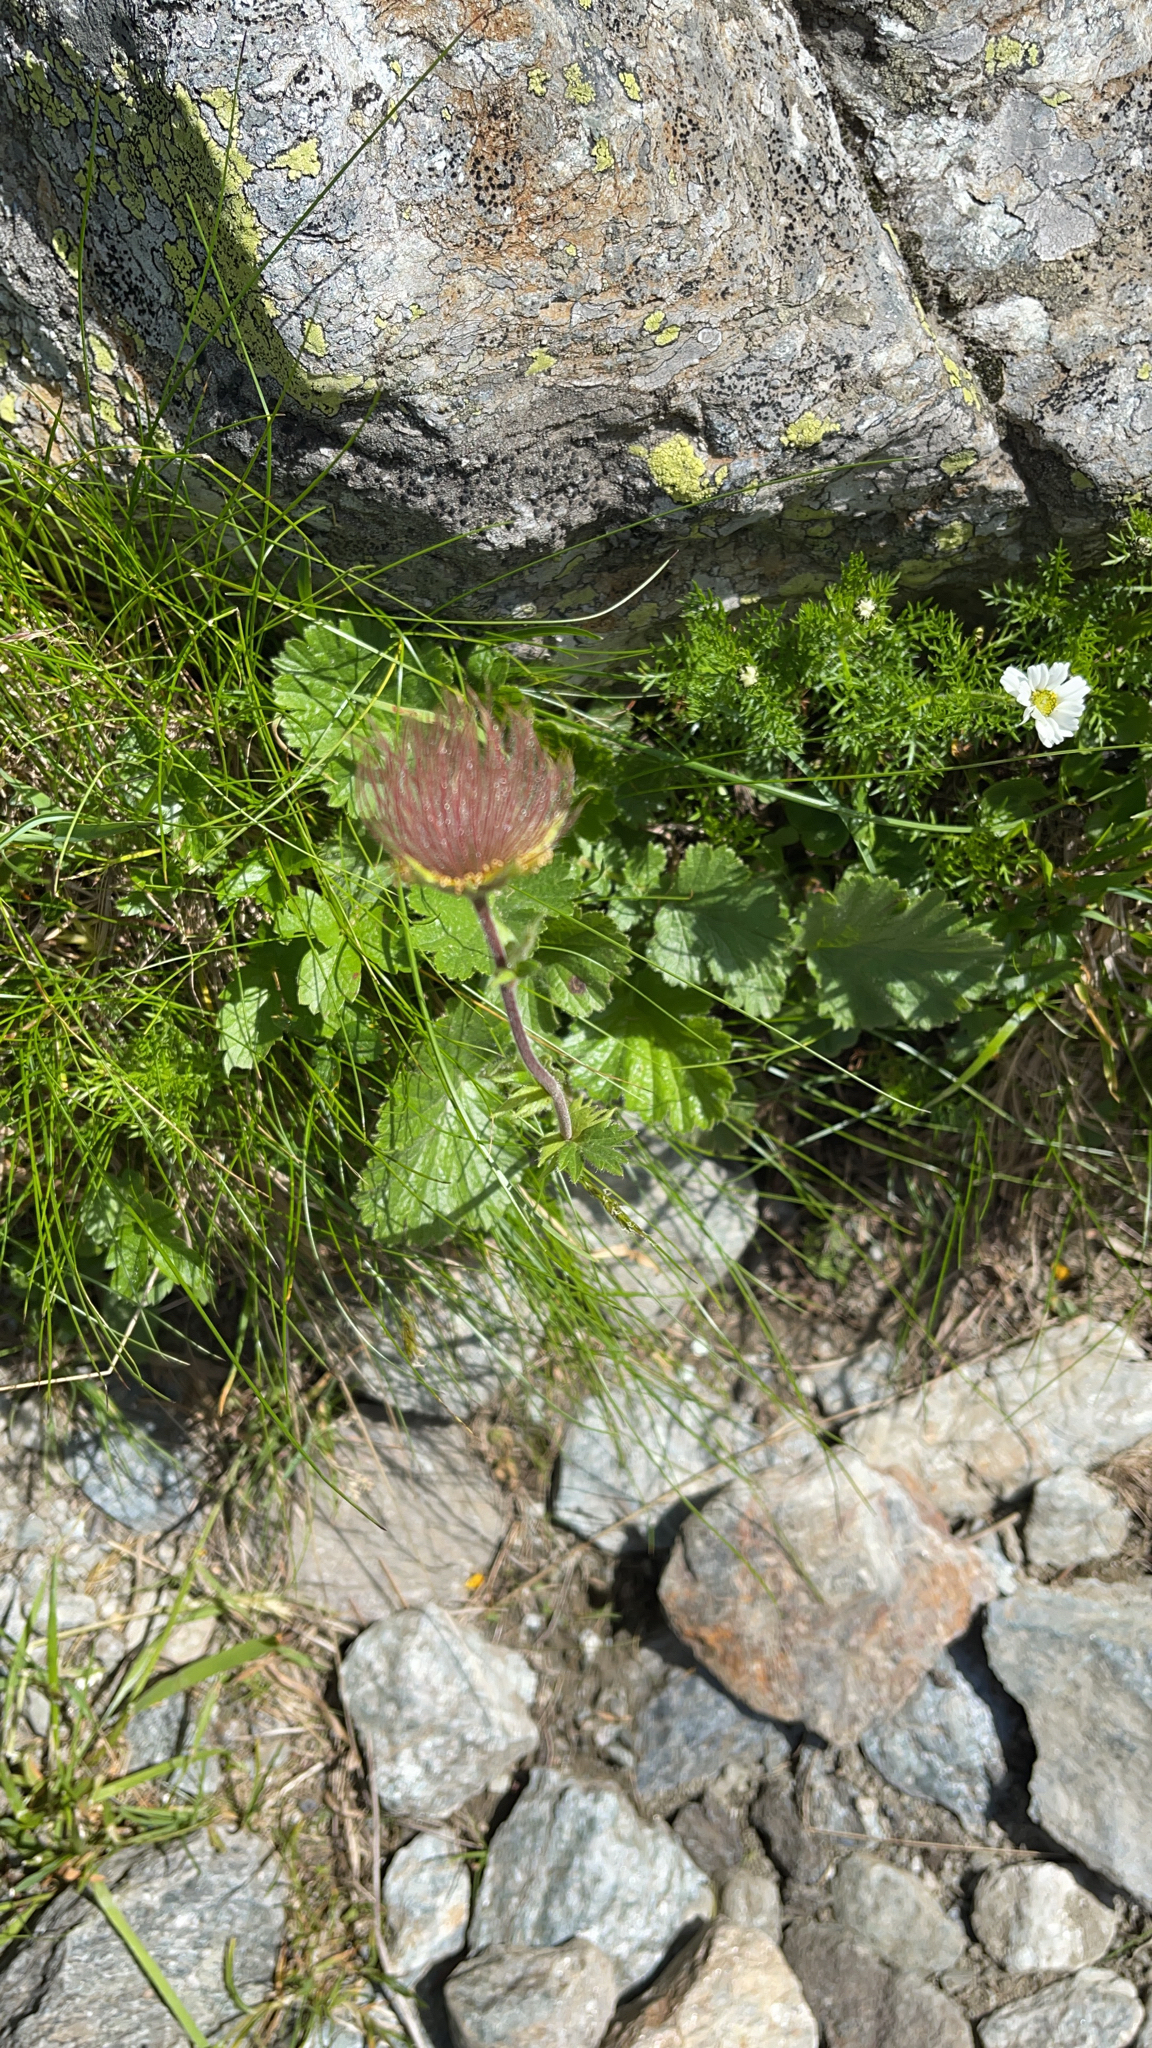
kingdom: Plantae
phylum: Tracheophyta
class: Magnoliopsida
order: Rosales
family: Rosaceae
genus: Geum
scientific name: Geum montanum
